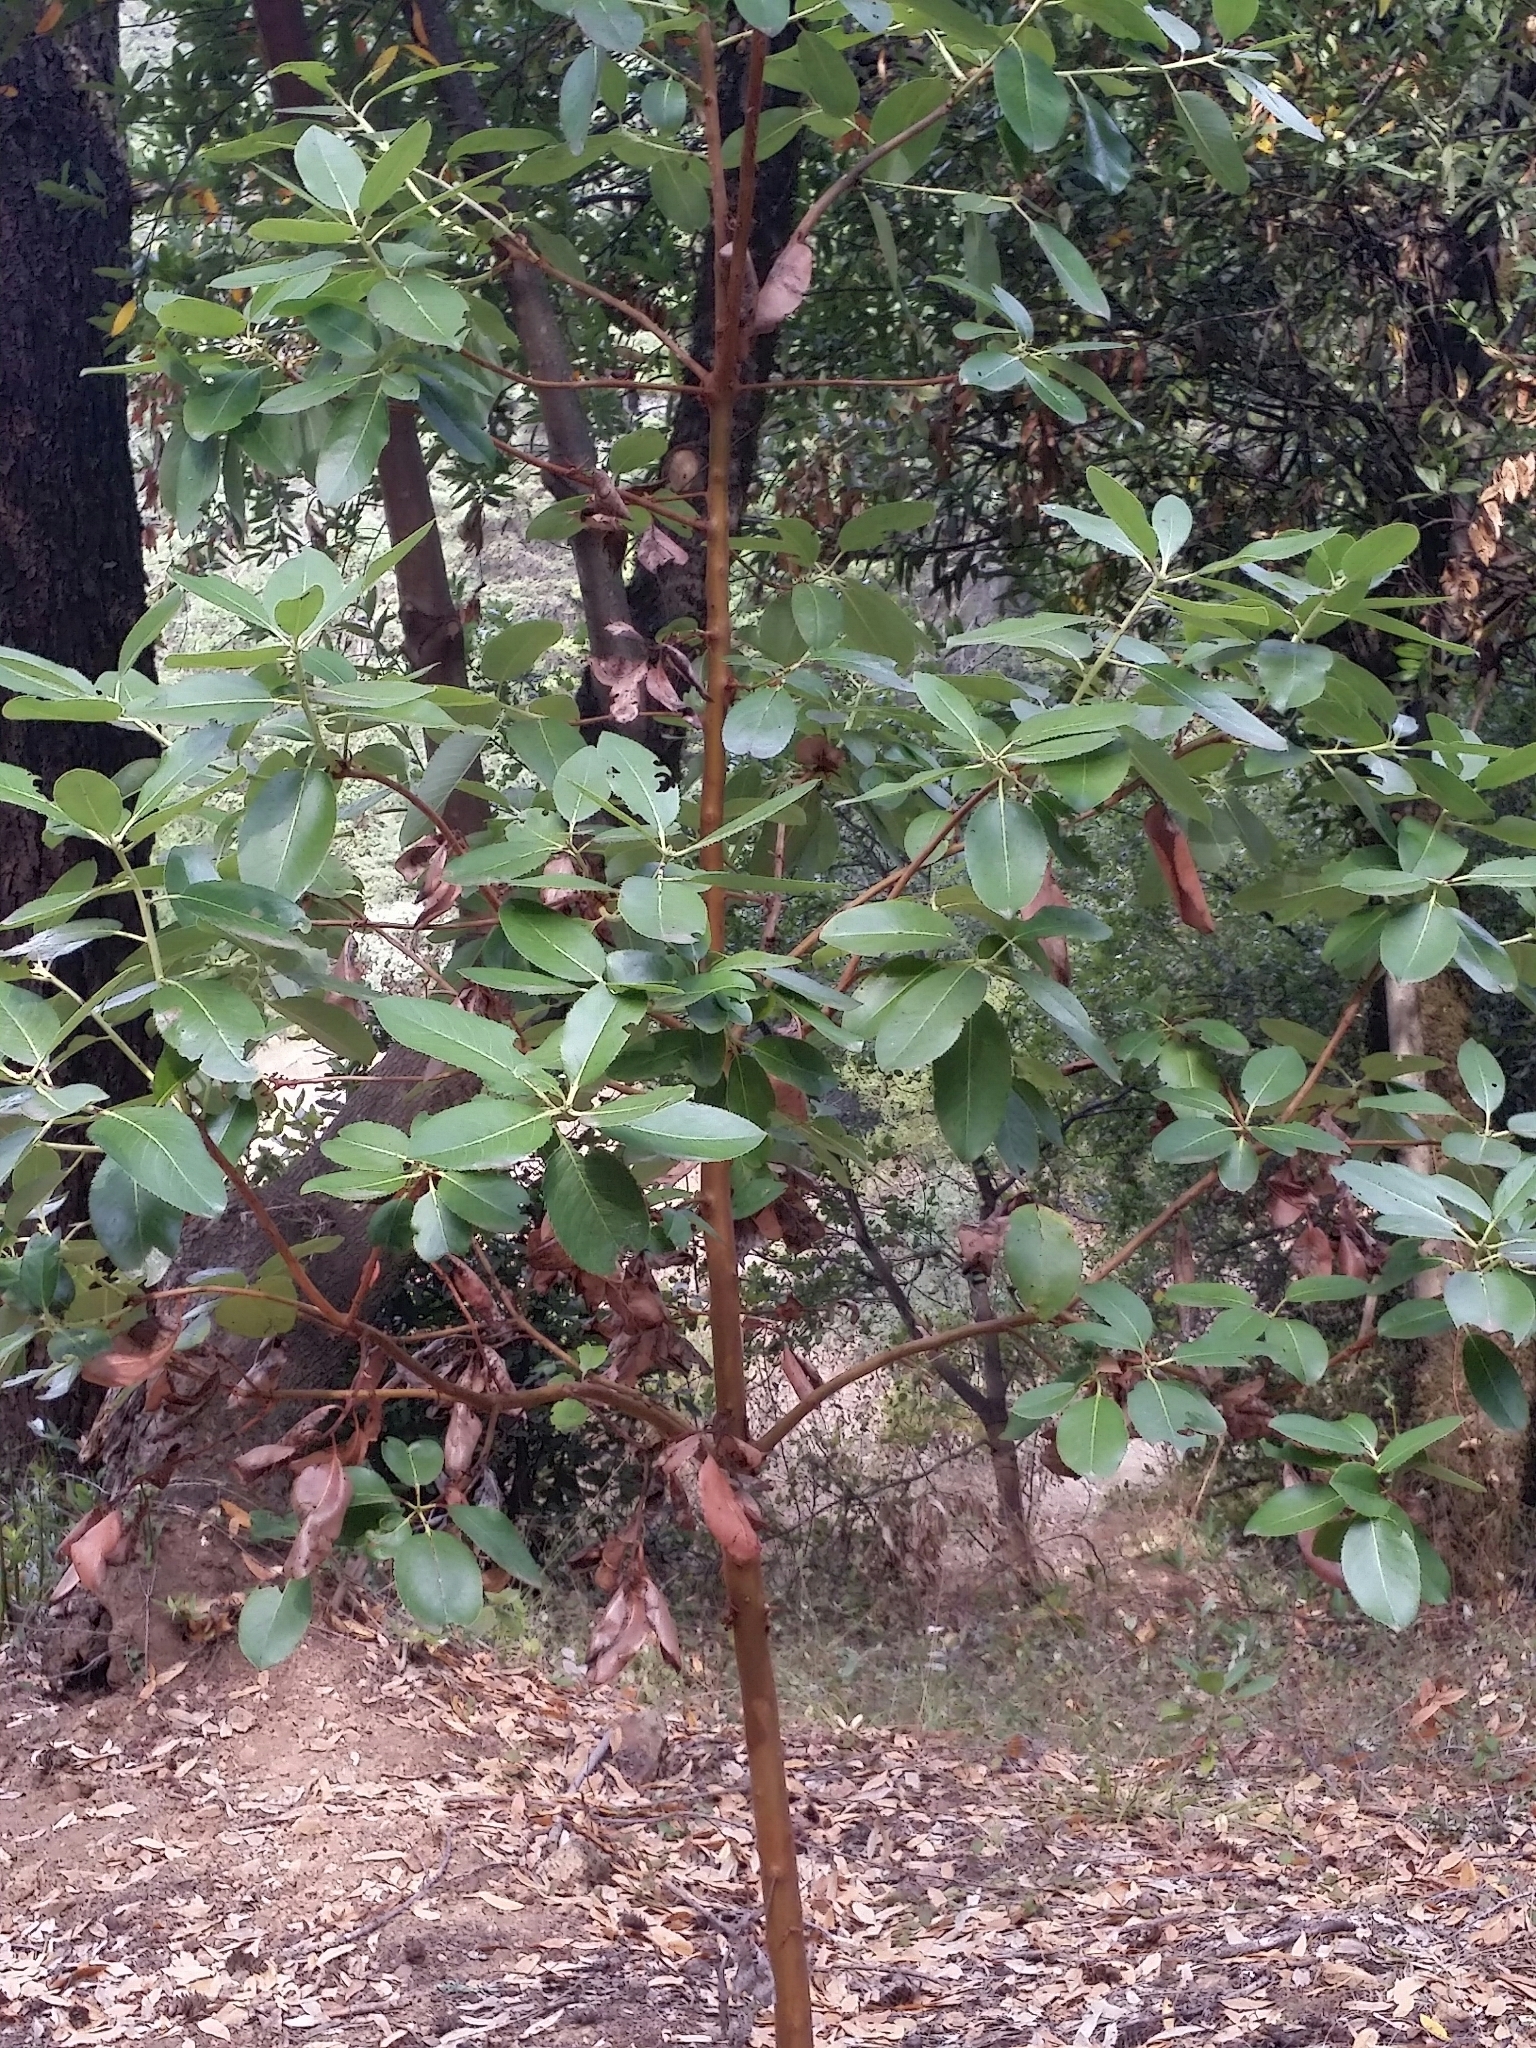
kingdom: Plantae
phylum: Tracheophyta
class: Magnoliopsida
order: Ericales
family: Ericaceae
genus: Arbutus
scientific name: Arbutus menziesii
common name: Pacific madrone
